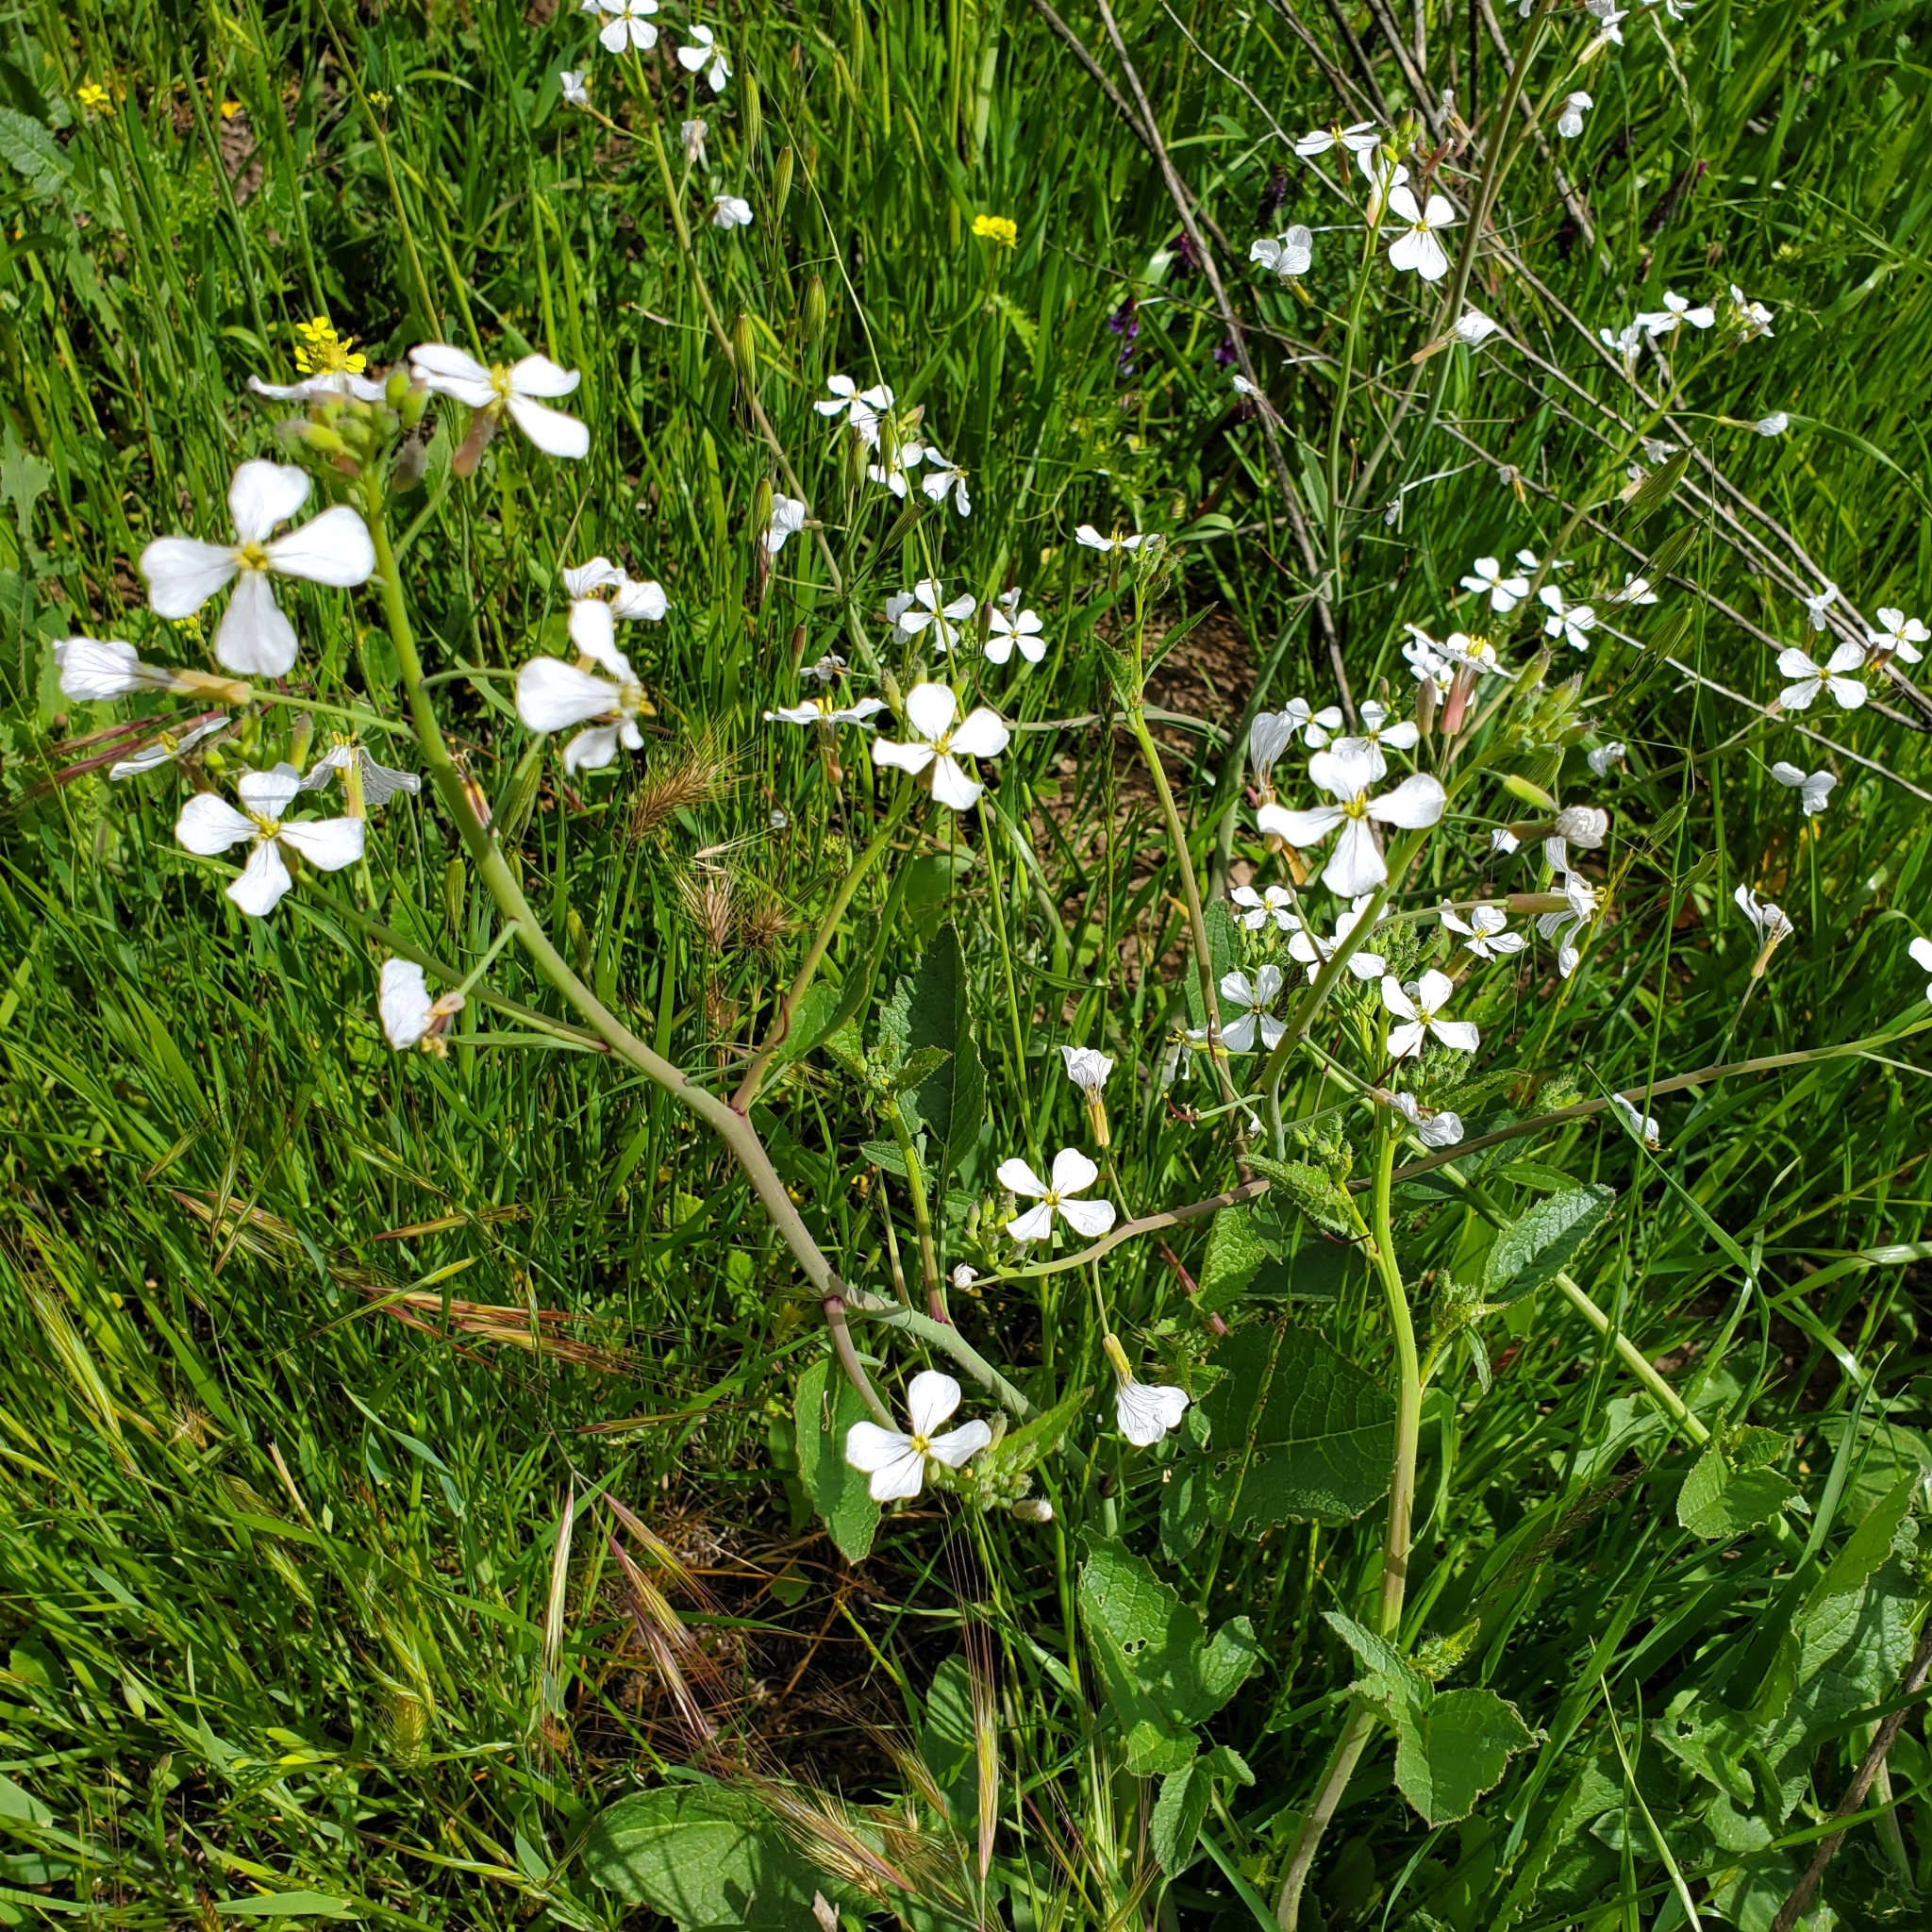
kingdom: Plantae
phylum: Tracheophyta
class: Magnoliopsida
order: Brassicales
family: Brassicaceae
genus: Raphanus
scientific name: Raphanus sativus
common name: Cultivated radish
